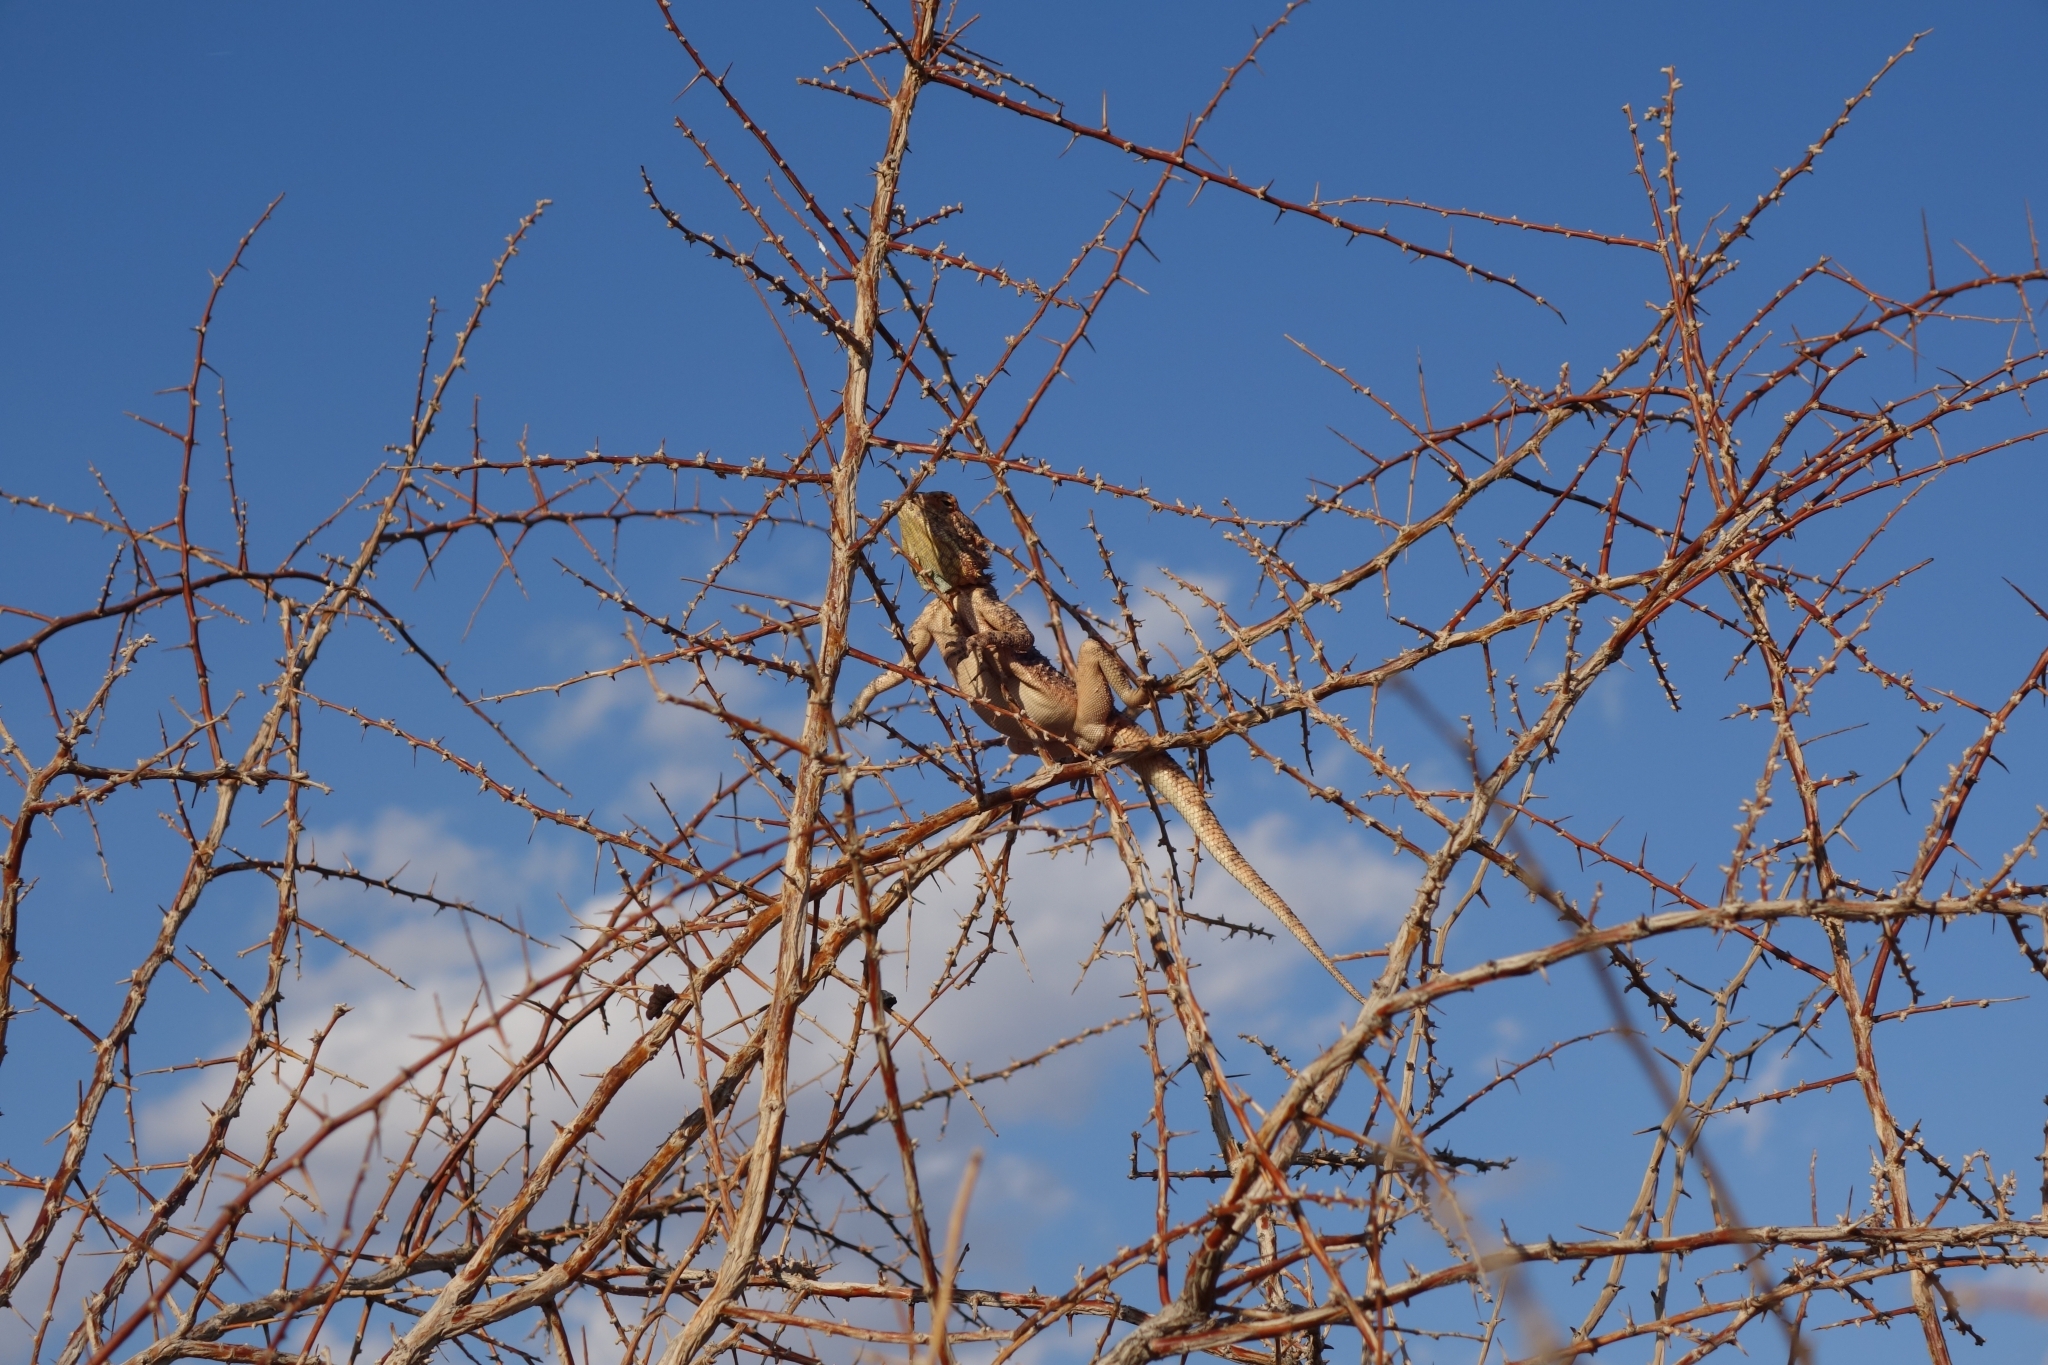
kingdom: Animalia
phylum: Chordata
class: Squamata
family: Agamidae
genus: Agama
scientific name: Agama aculeata
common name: Common ground agama
